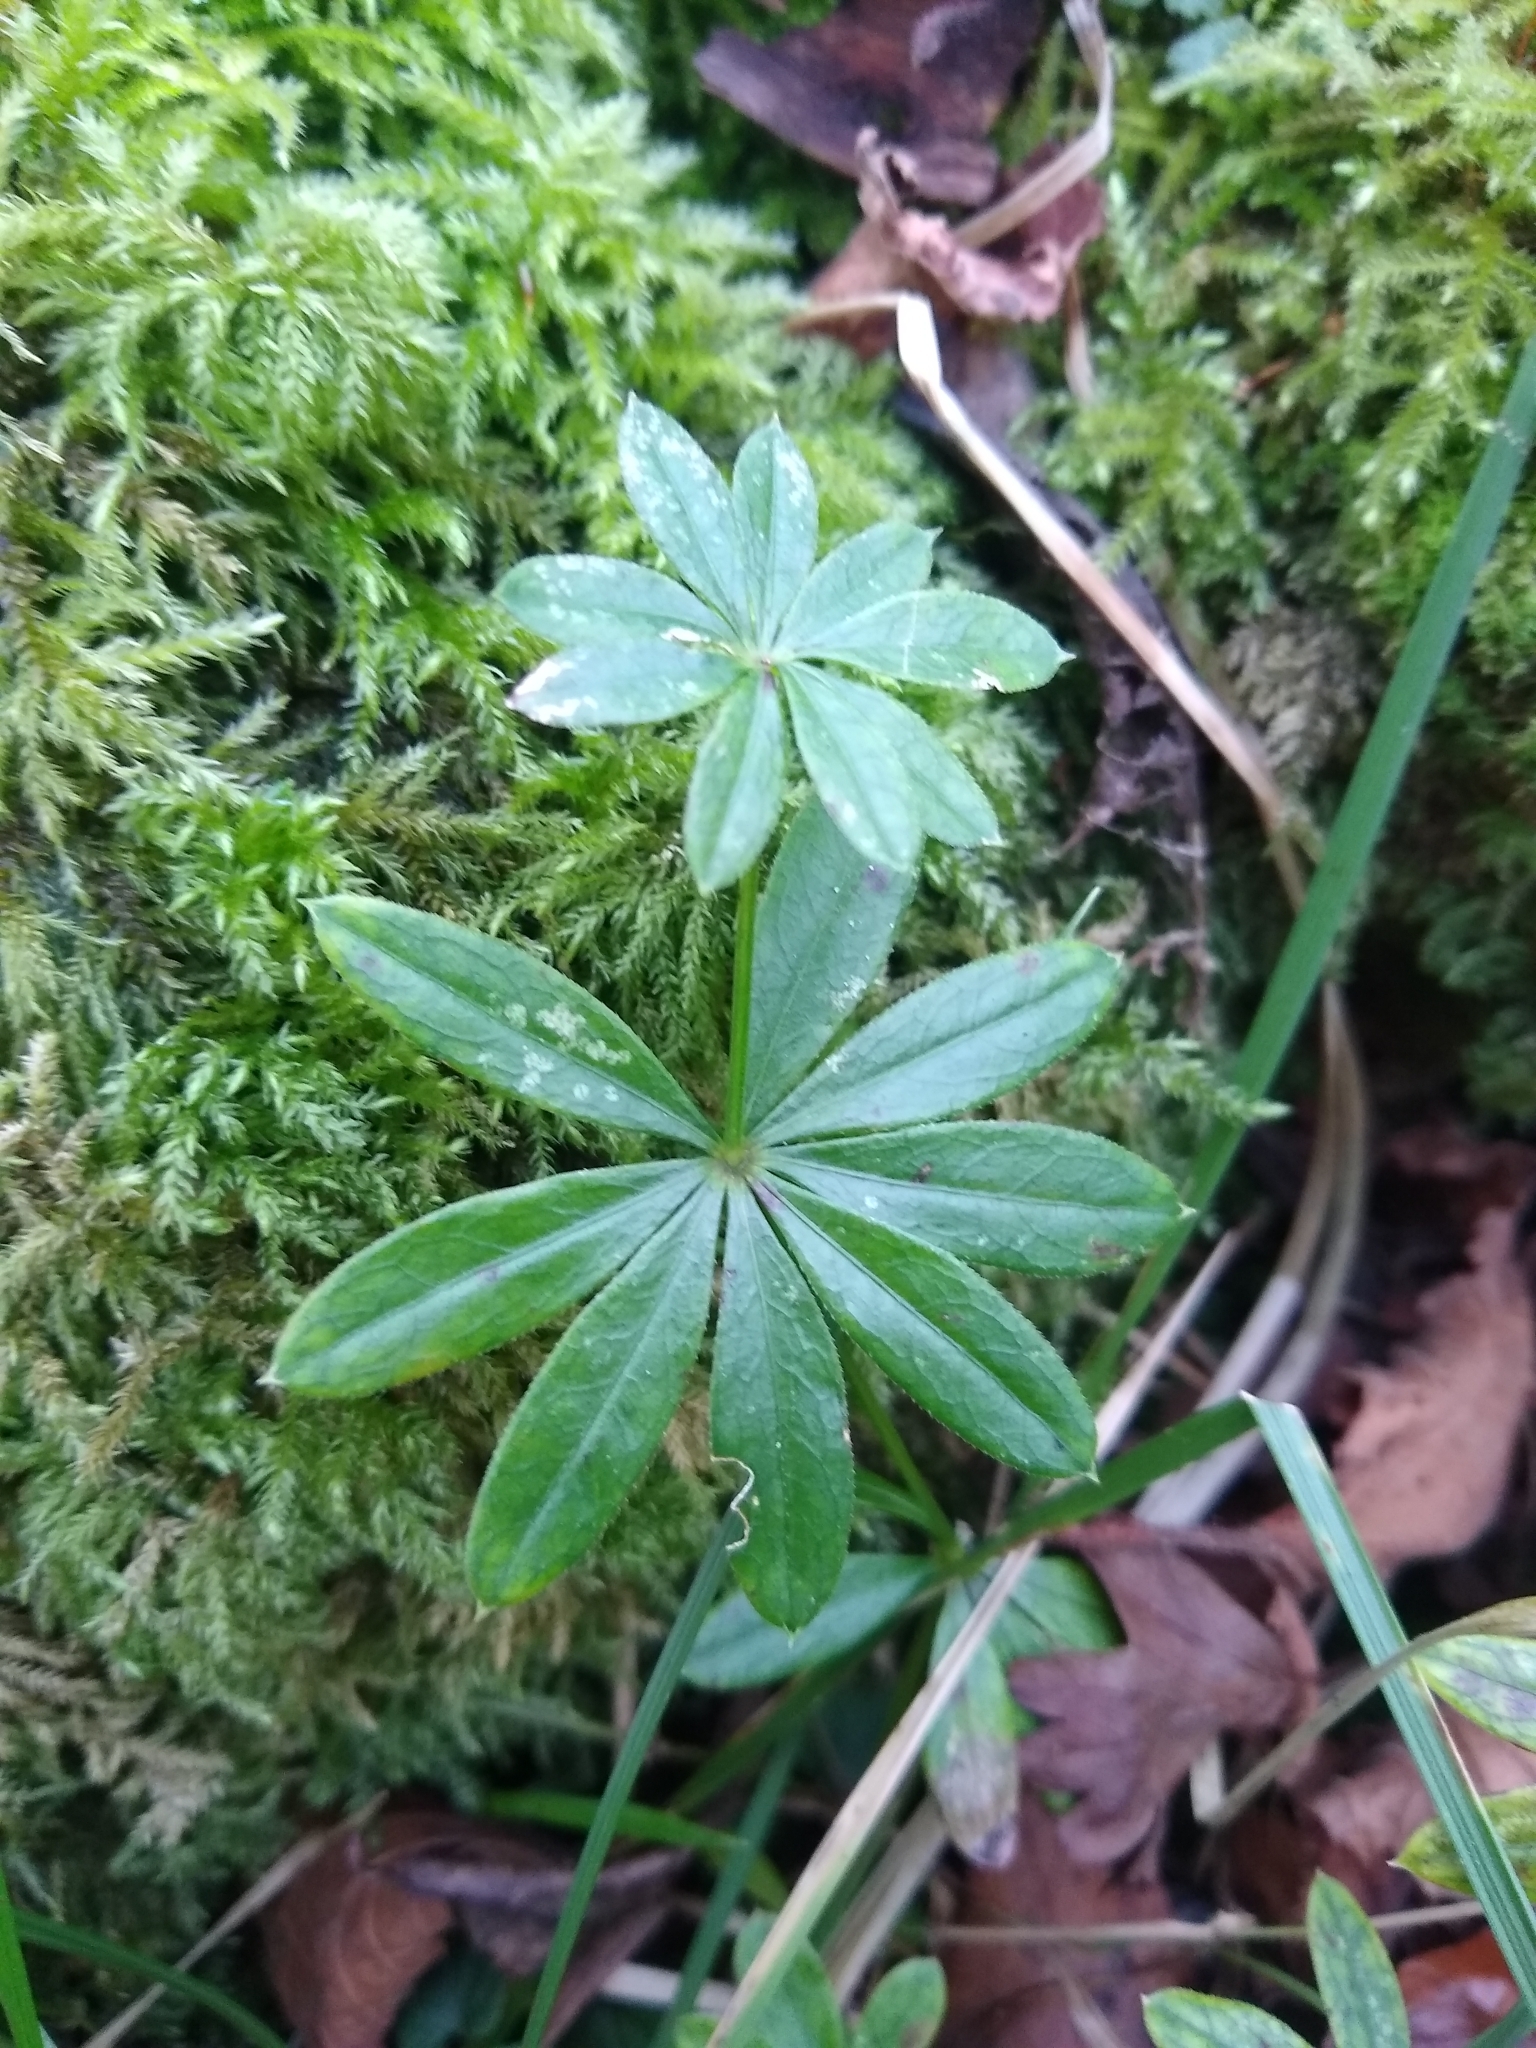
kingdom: Plantae
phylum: Tracheophyta
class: Magnoliopsida
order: Gentianales
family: Rubiaceae
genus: Galium
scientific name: Galium odoratum
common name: Sweet woodruff
